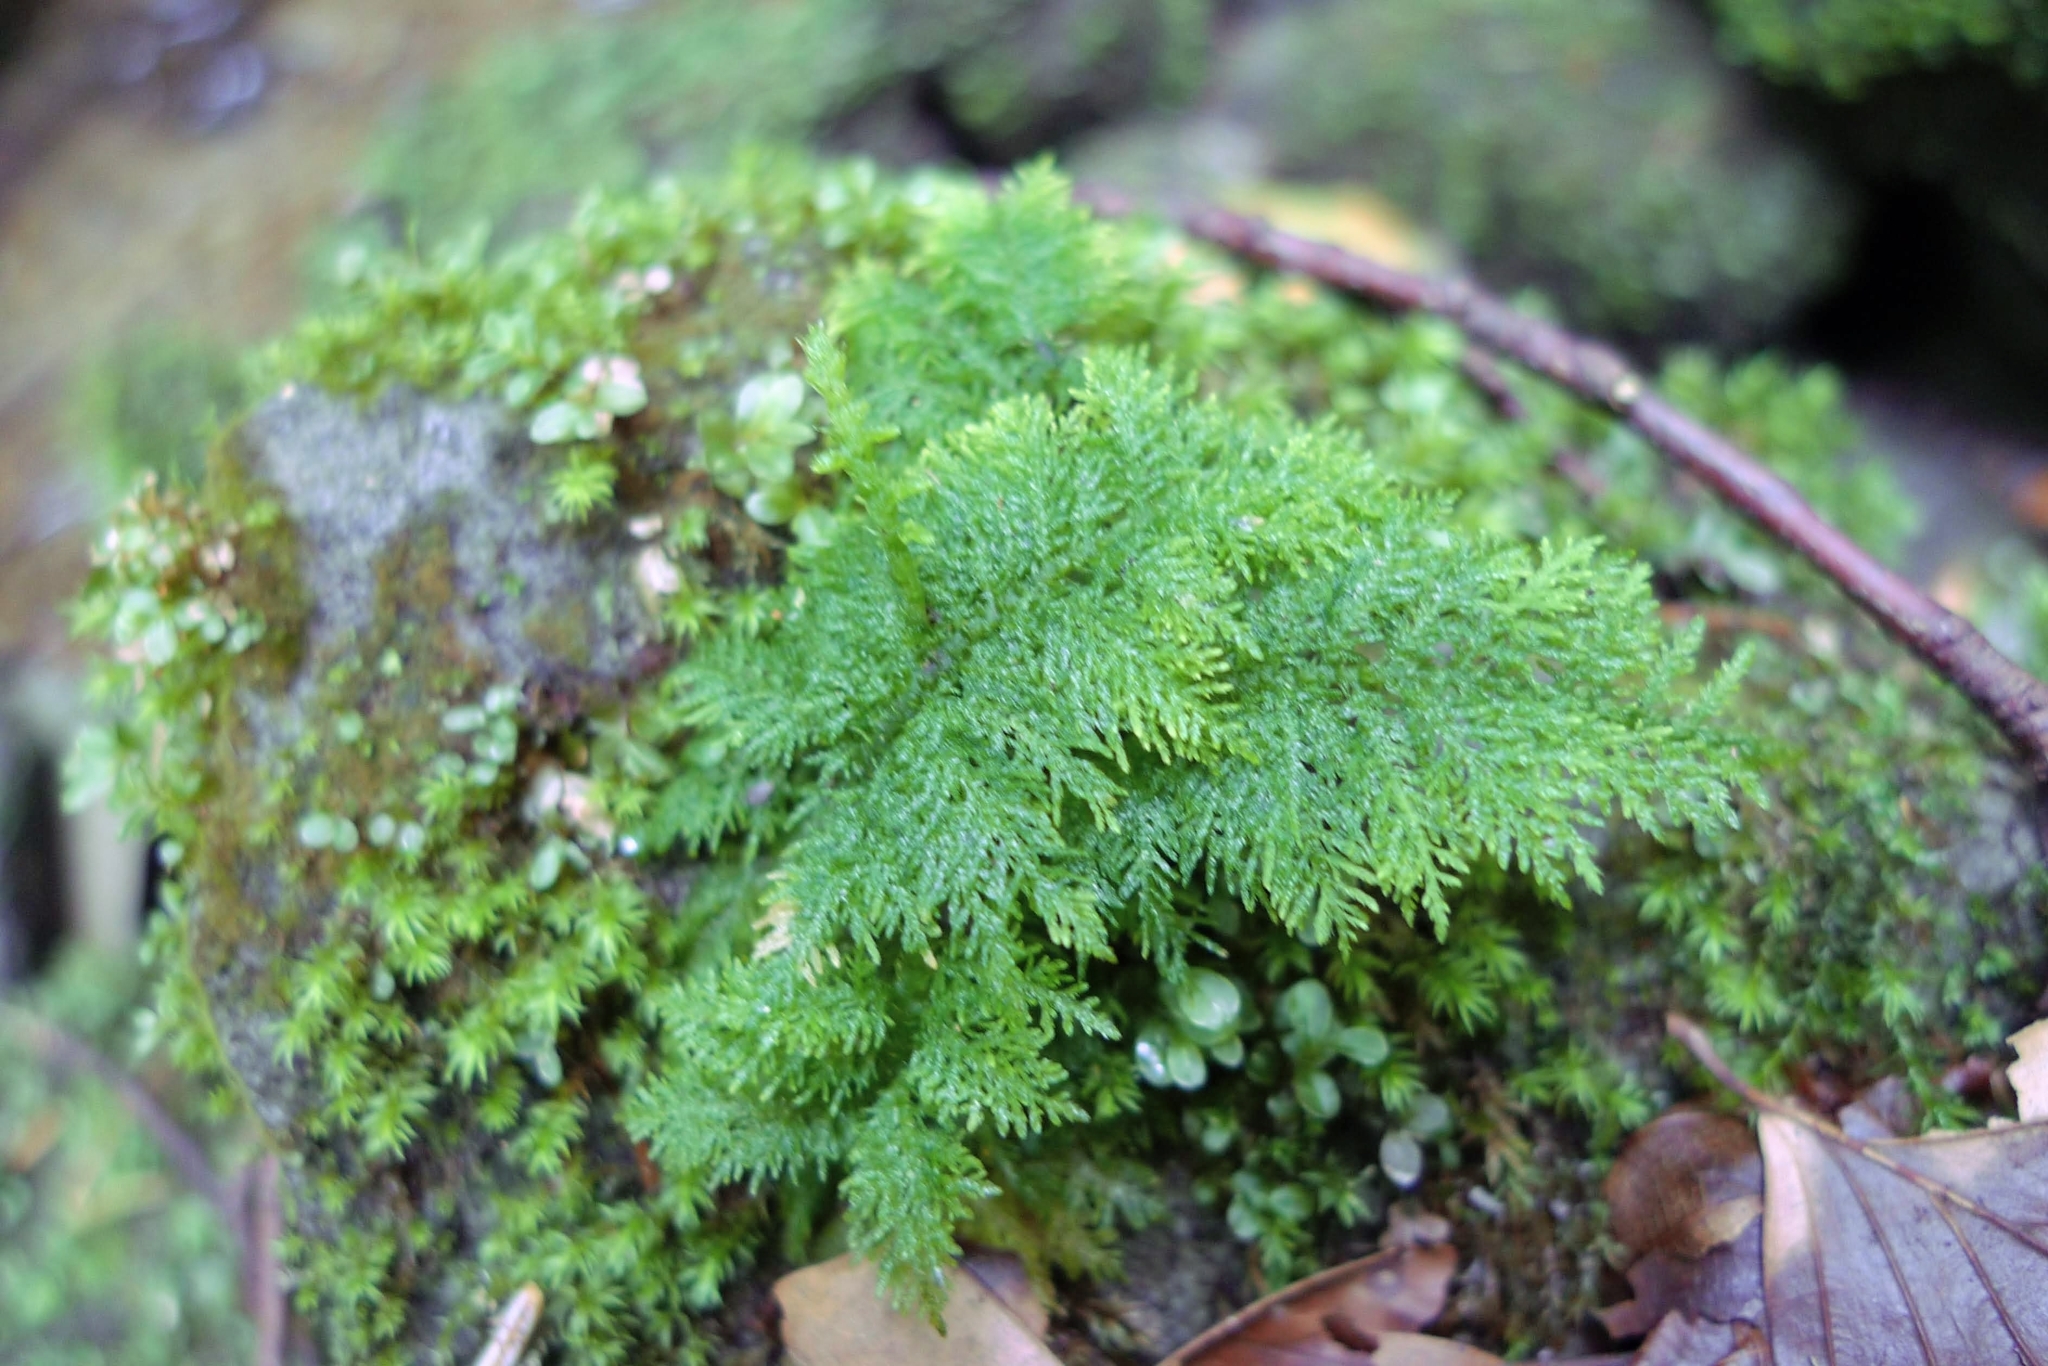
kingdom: Plantae
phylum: Bryophyta
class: Bryopsida
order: Hypnales
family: Thuidiaceae
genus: Thuidium
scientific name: Thuidium tamariscinum
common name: Common tamarisk-moss
